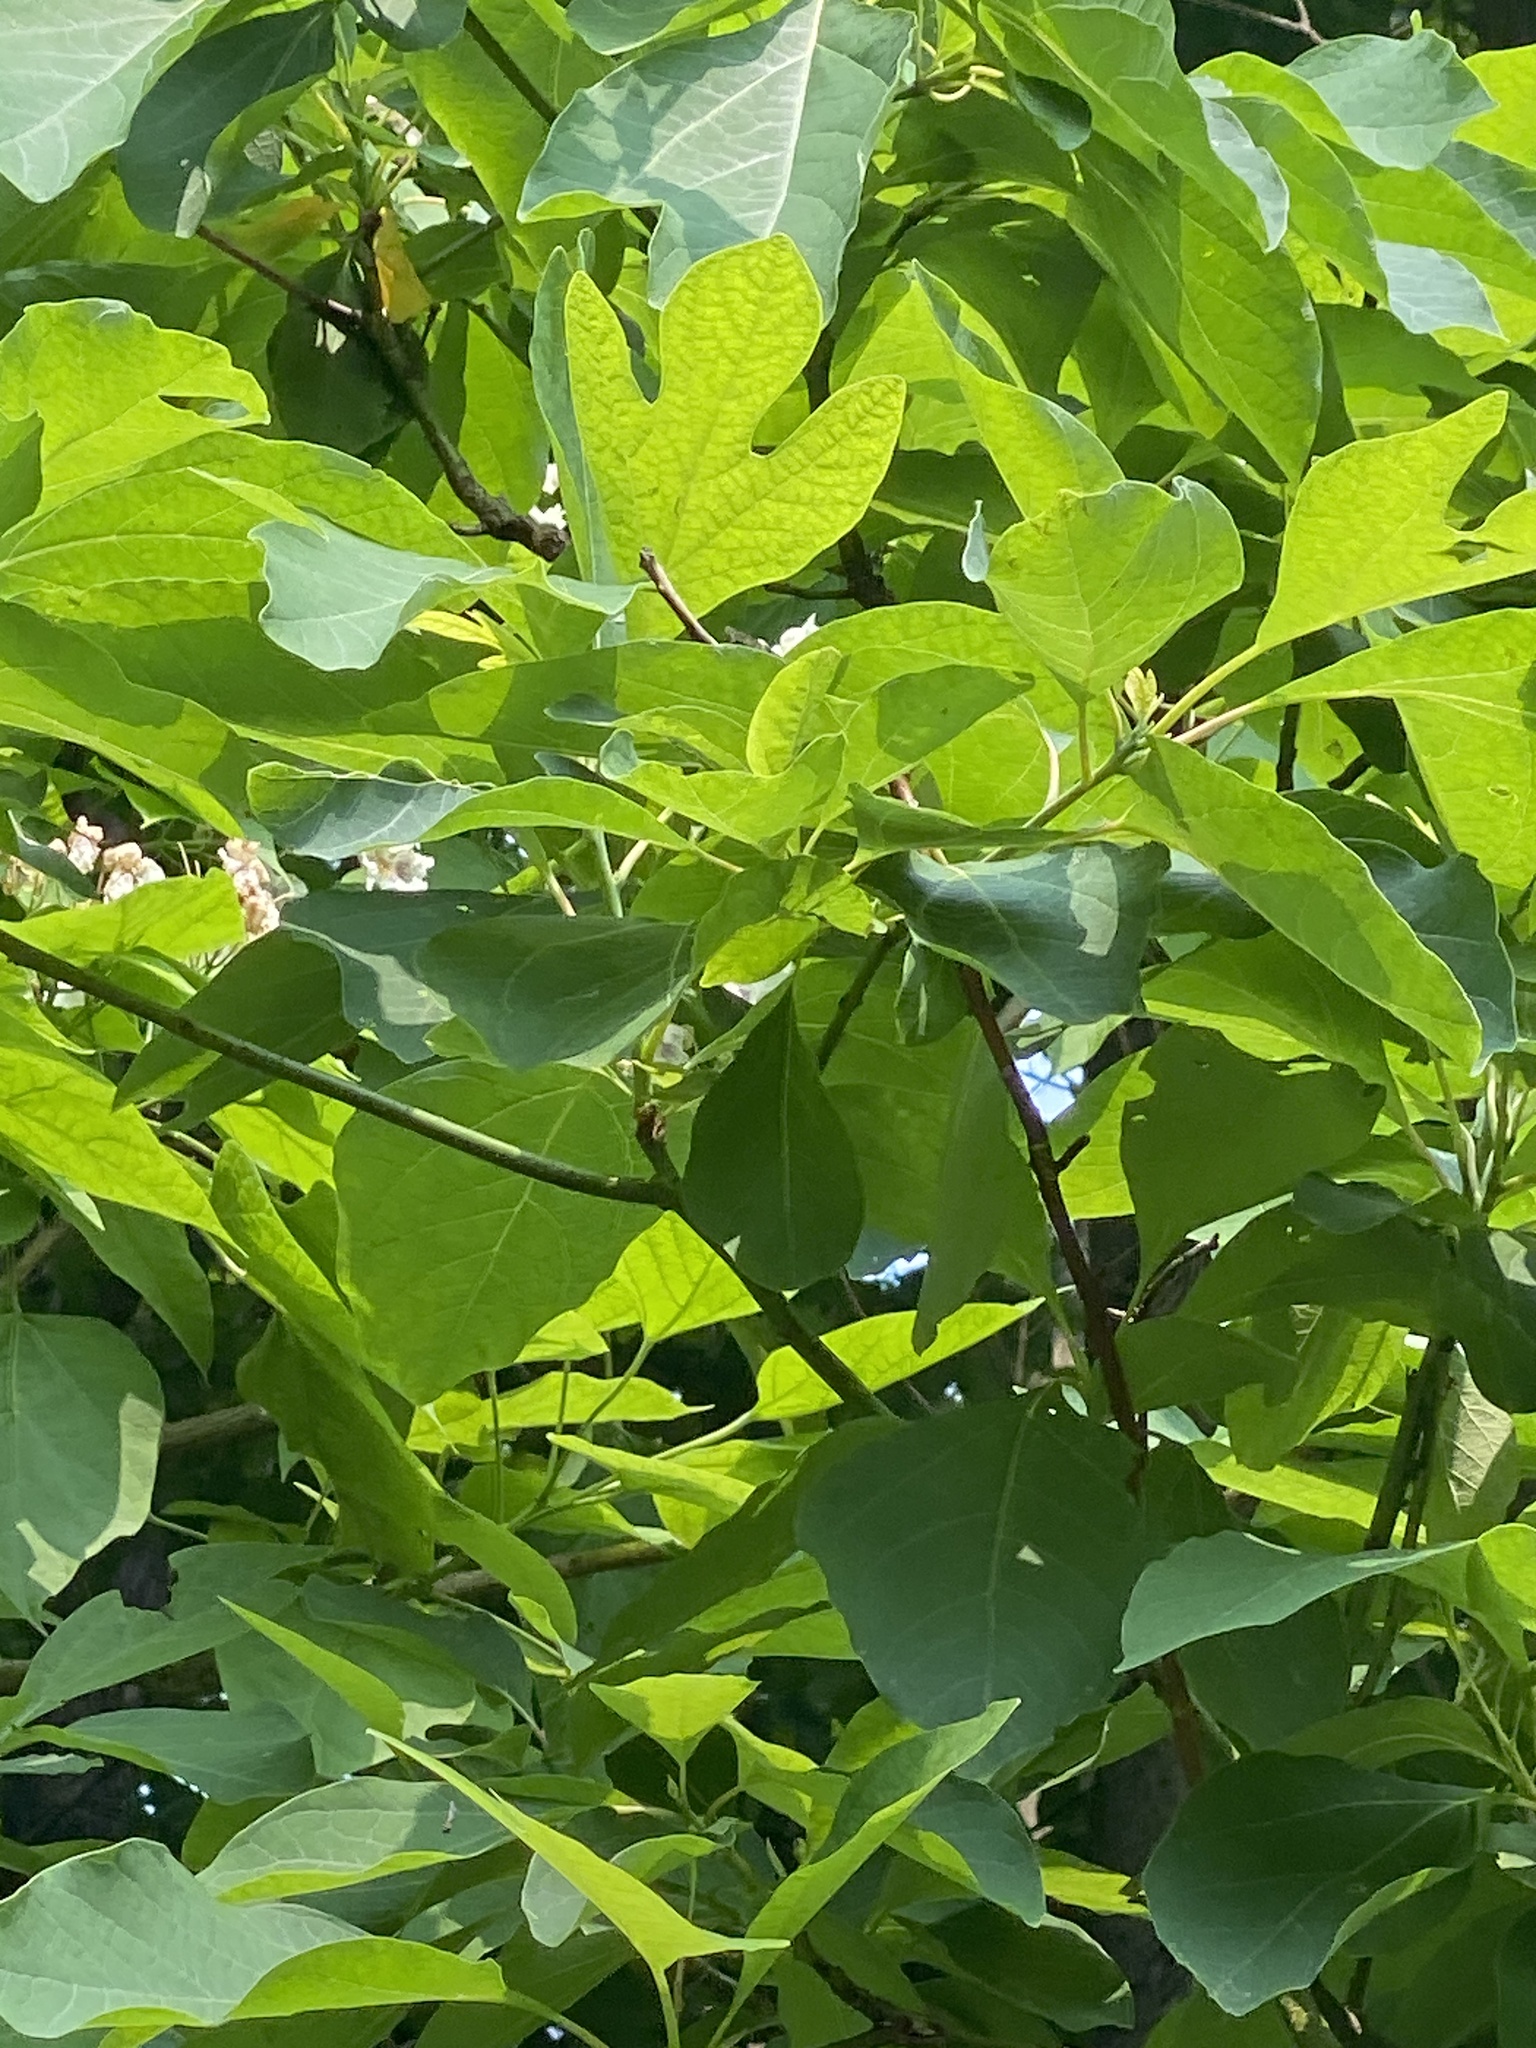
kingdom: Plantae
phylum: Tracheophyta
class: Magnoliopsida
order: Laurales
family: Lauraceae
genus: Sassafras
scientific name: Sassafras albidum
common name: Sassafras
